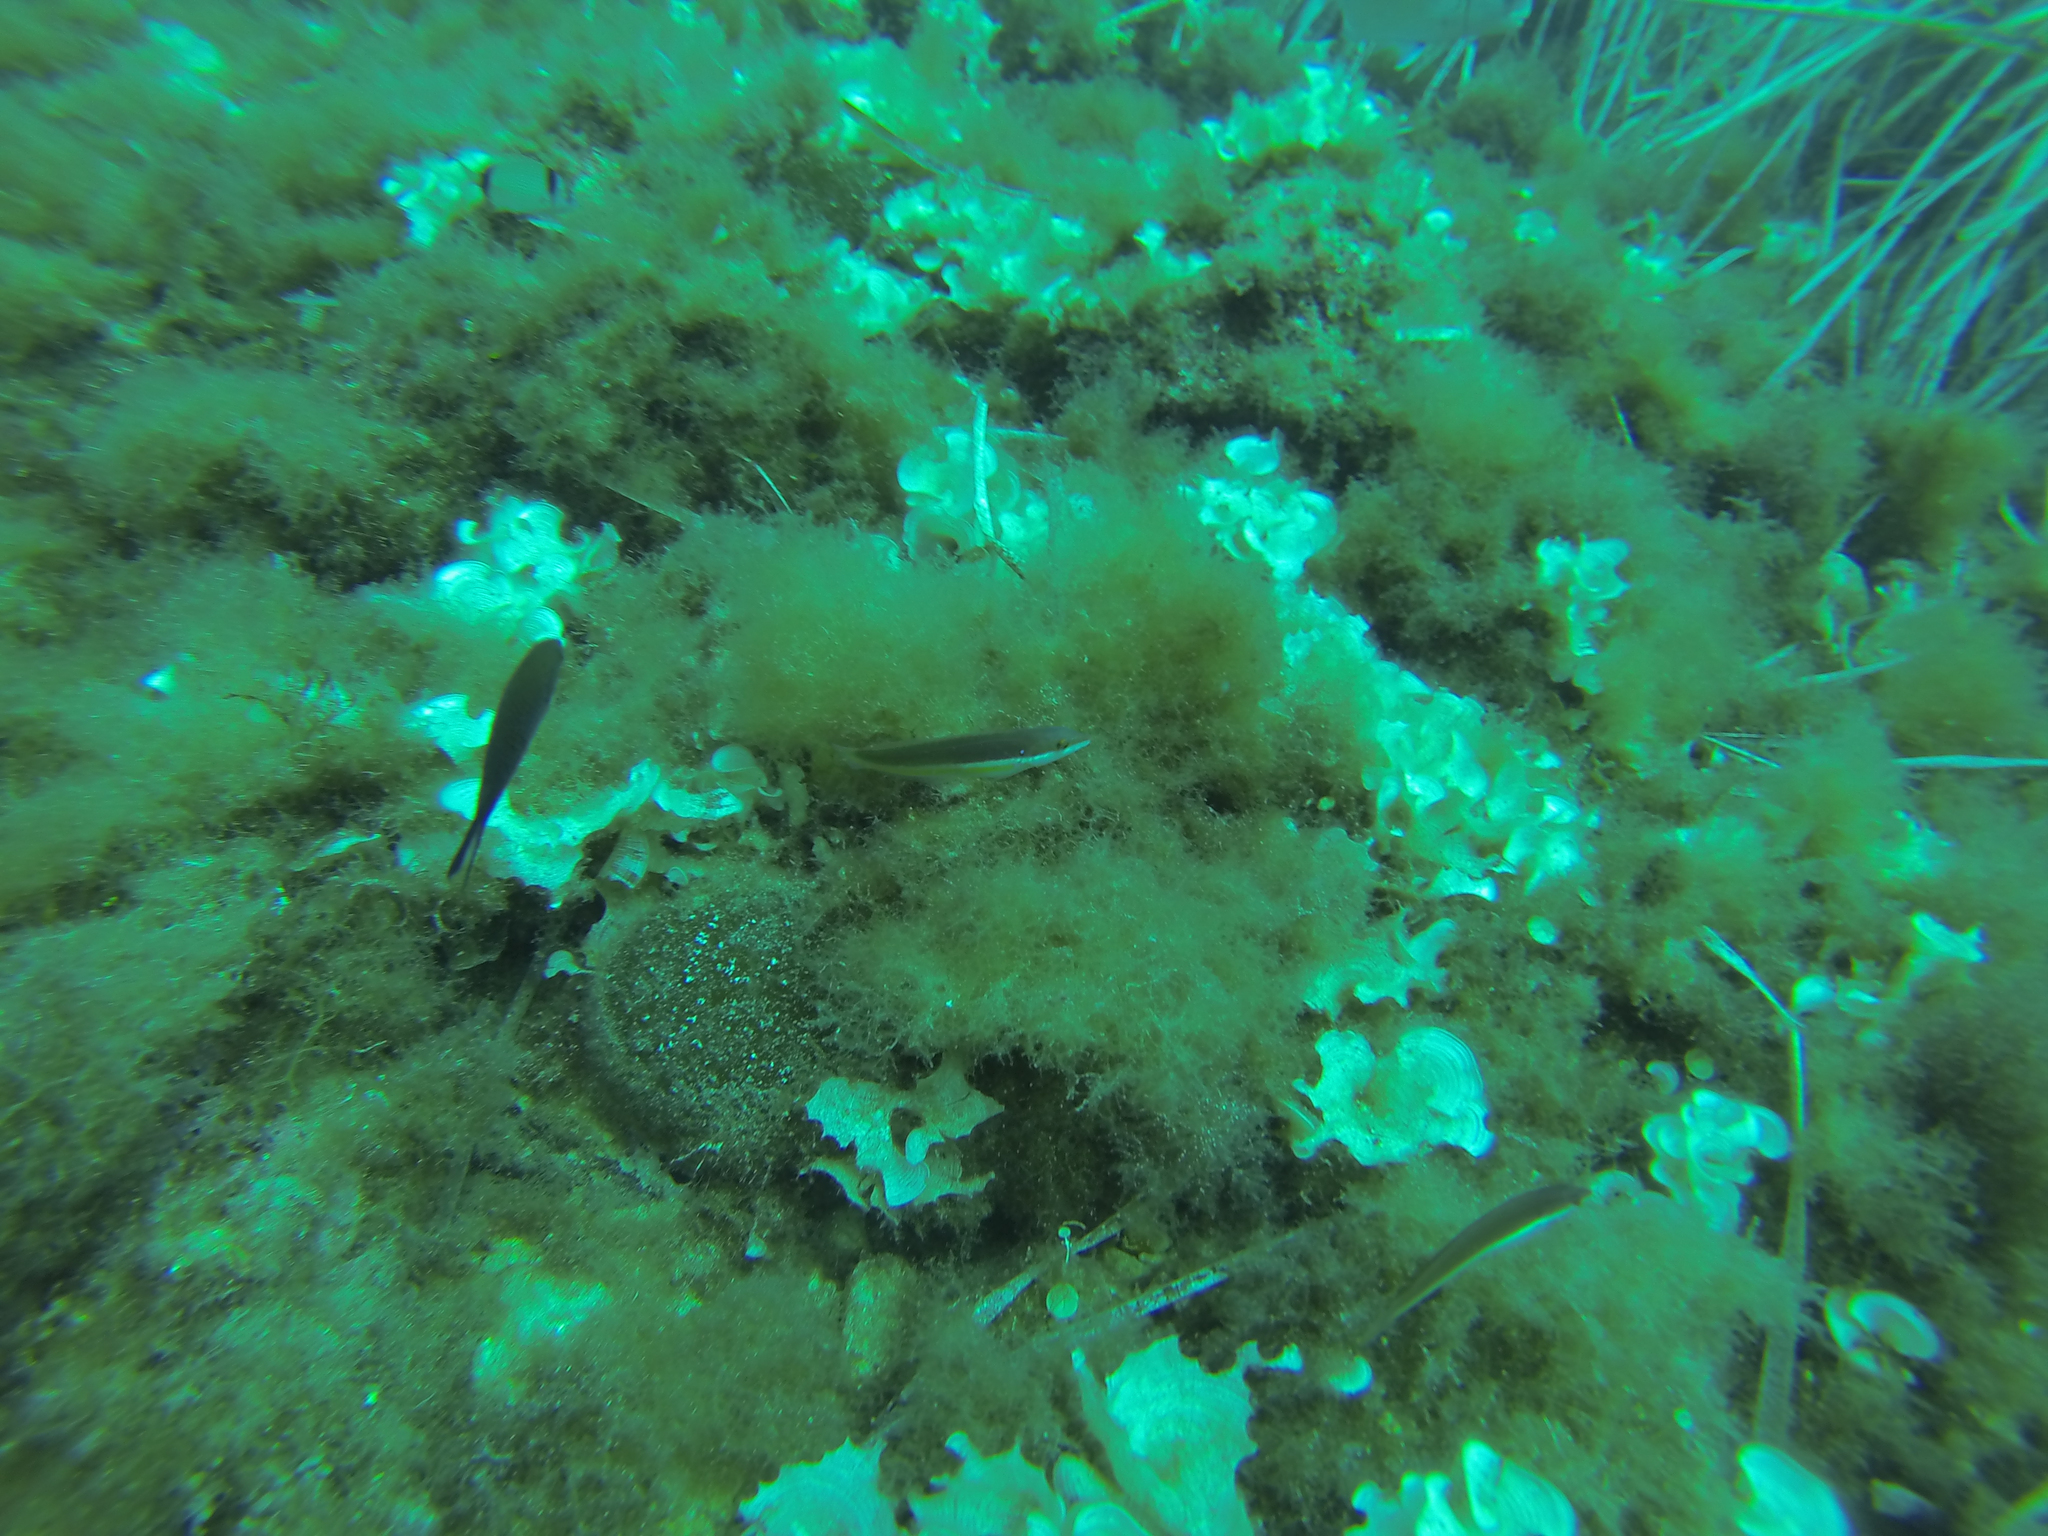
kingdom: Animalia
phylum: Chordata
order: Perciformes
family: Labridae
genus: Coris
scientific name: Coris julis
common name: Rainbow wrasse
